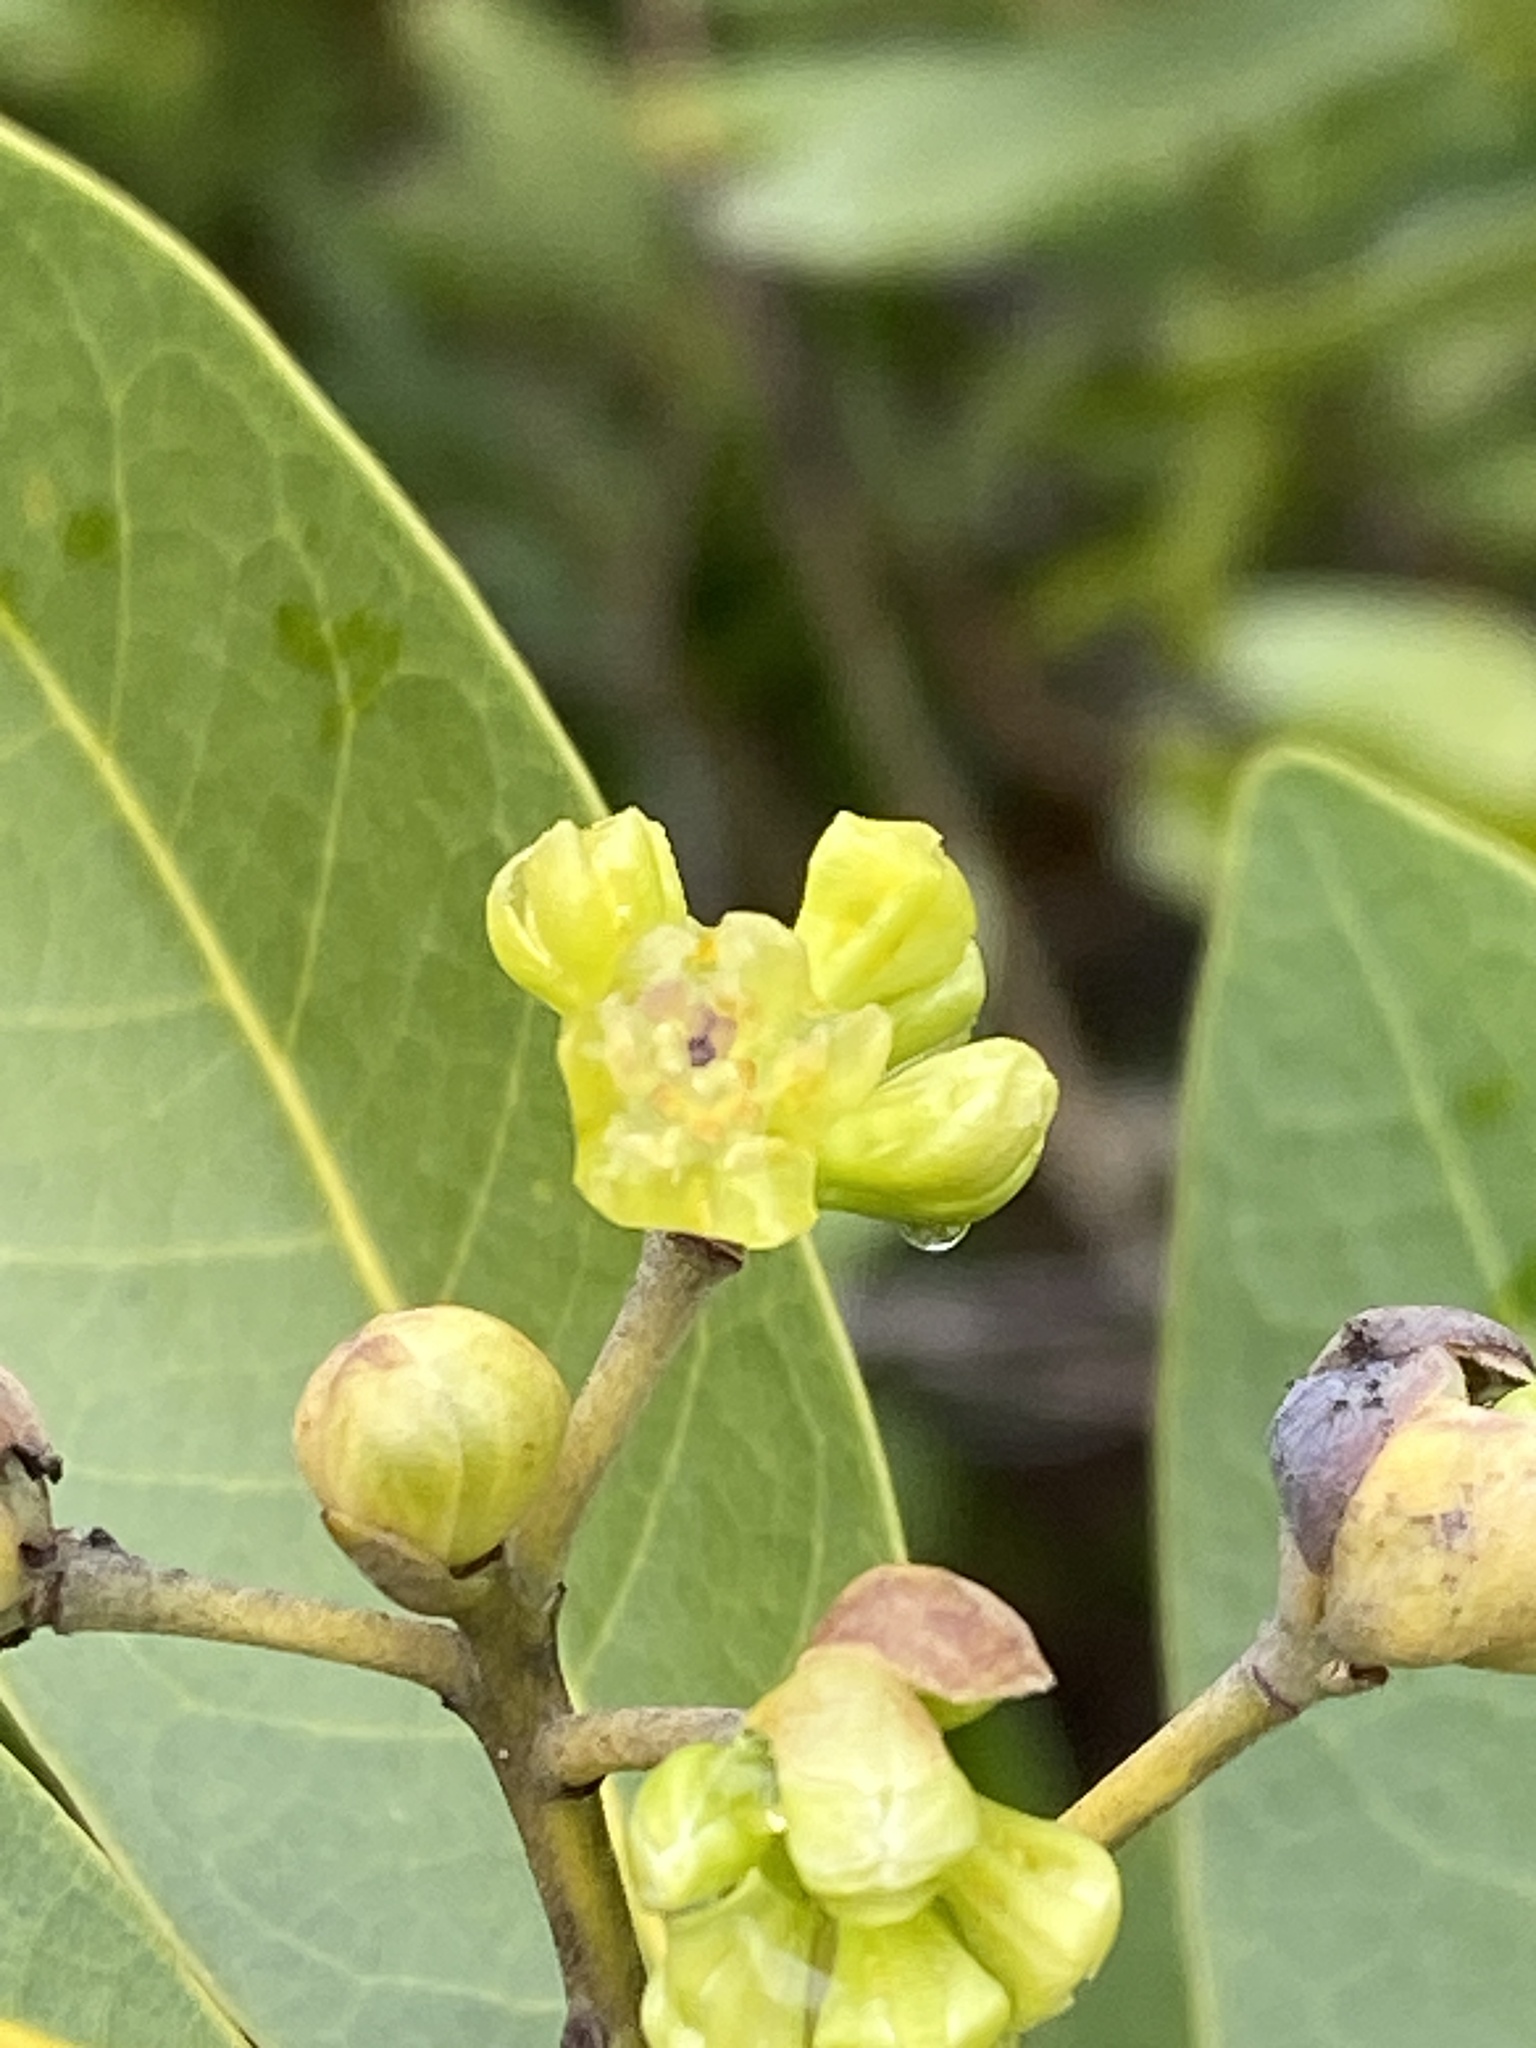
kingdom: Plantae
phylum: Tracheophyta
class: Magnoliopsida
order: Laurales
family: Lauraceae
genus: Umbellularia
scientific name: Umbellularia californica
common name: California bay
